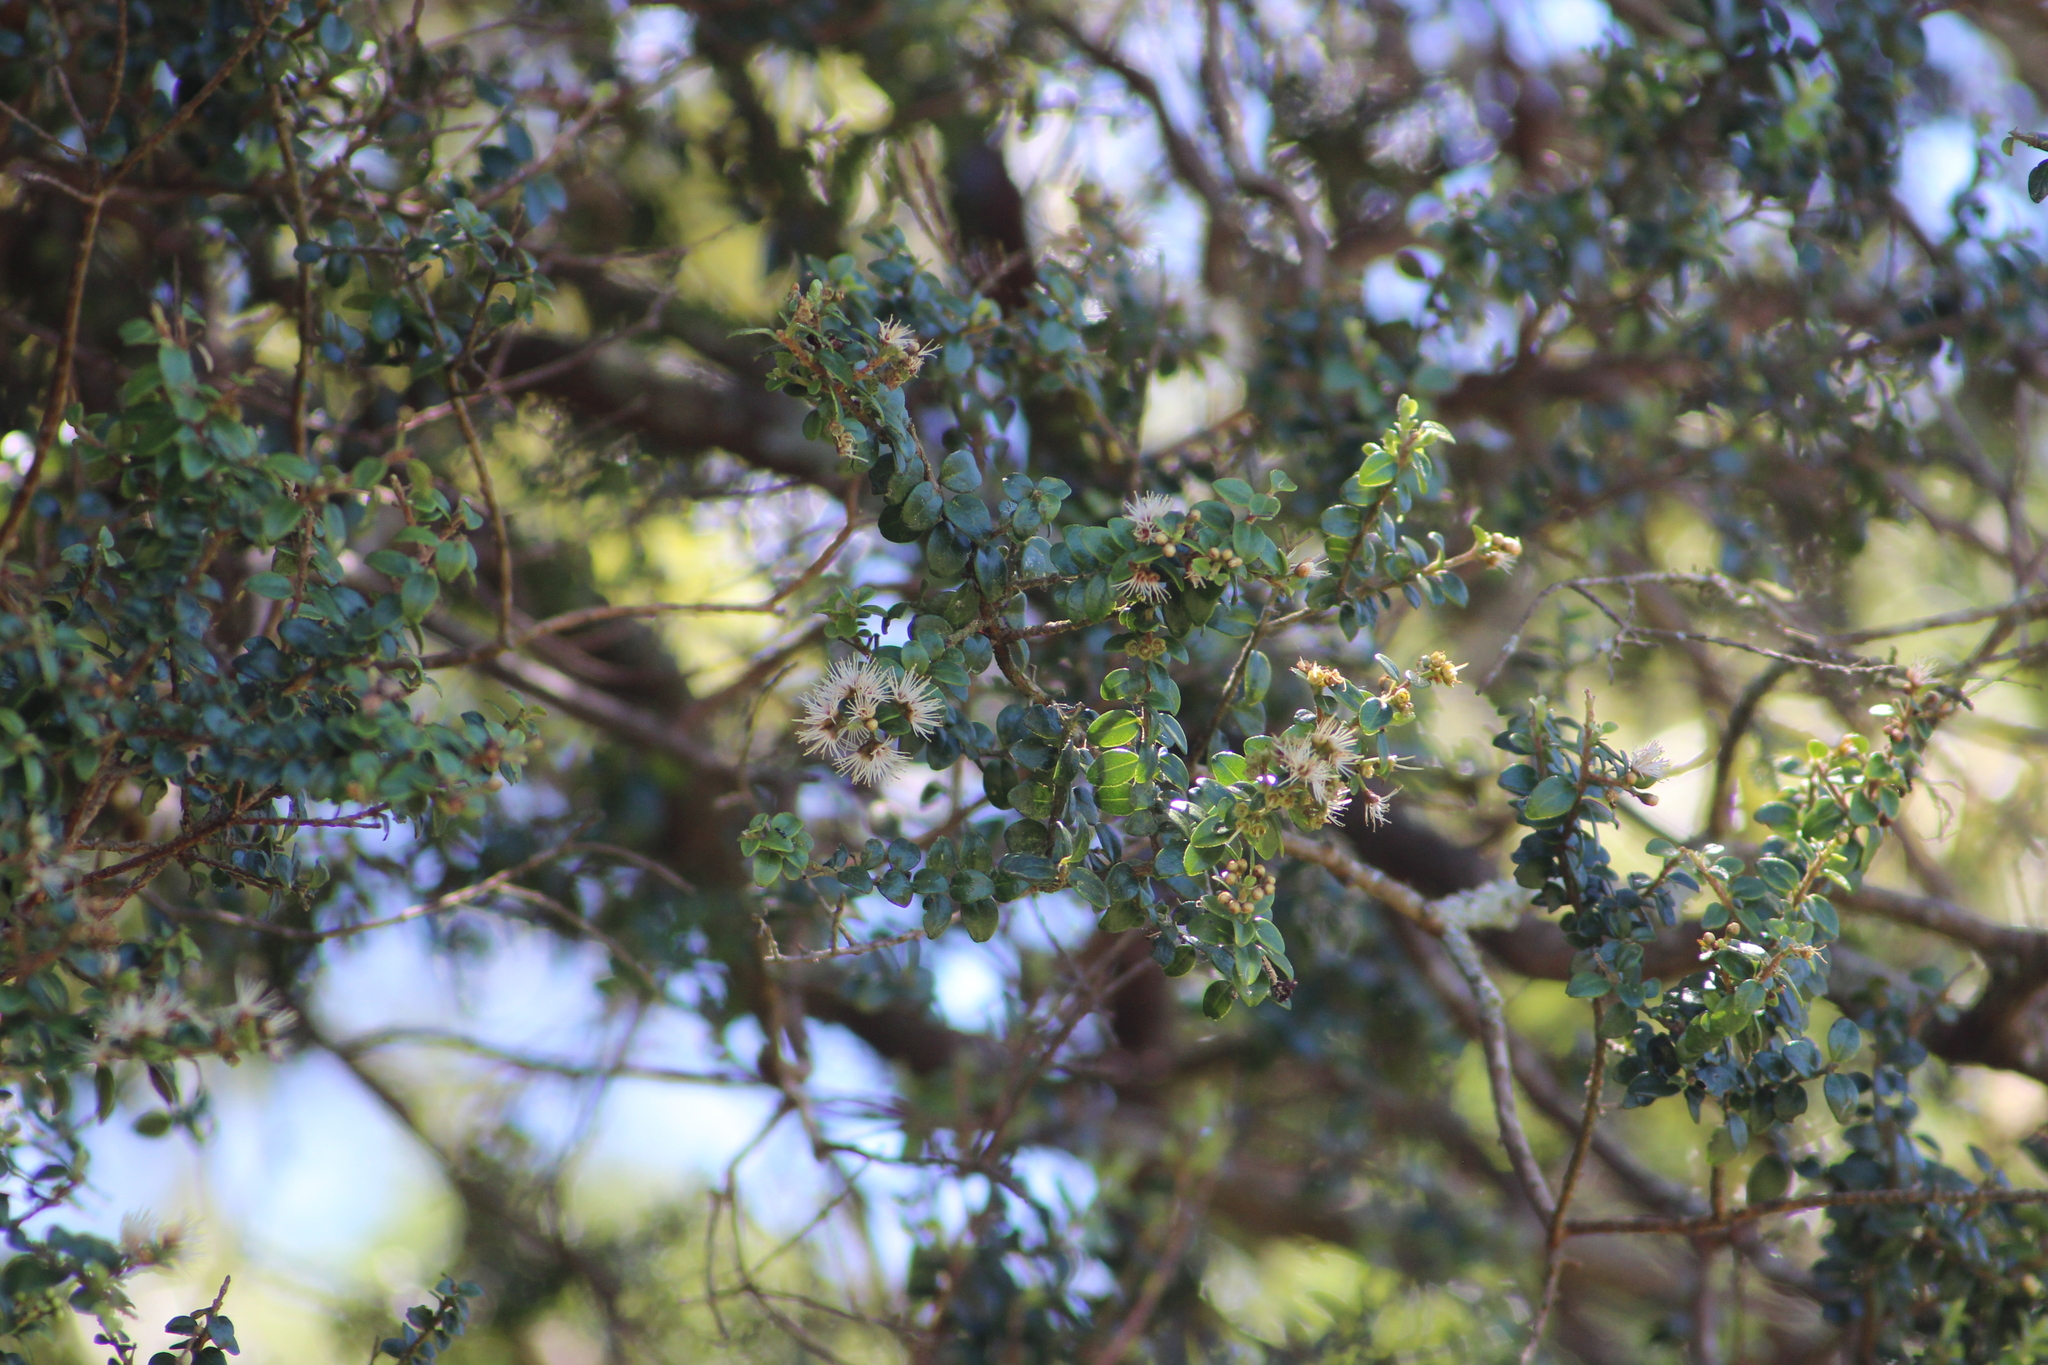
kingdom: Plantae
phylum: Tracheophyta
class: Magnoliopsida
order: Myrtales
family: Myrtaceae
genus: Metrosideros
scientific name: Metrosideros perforata
